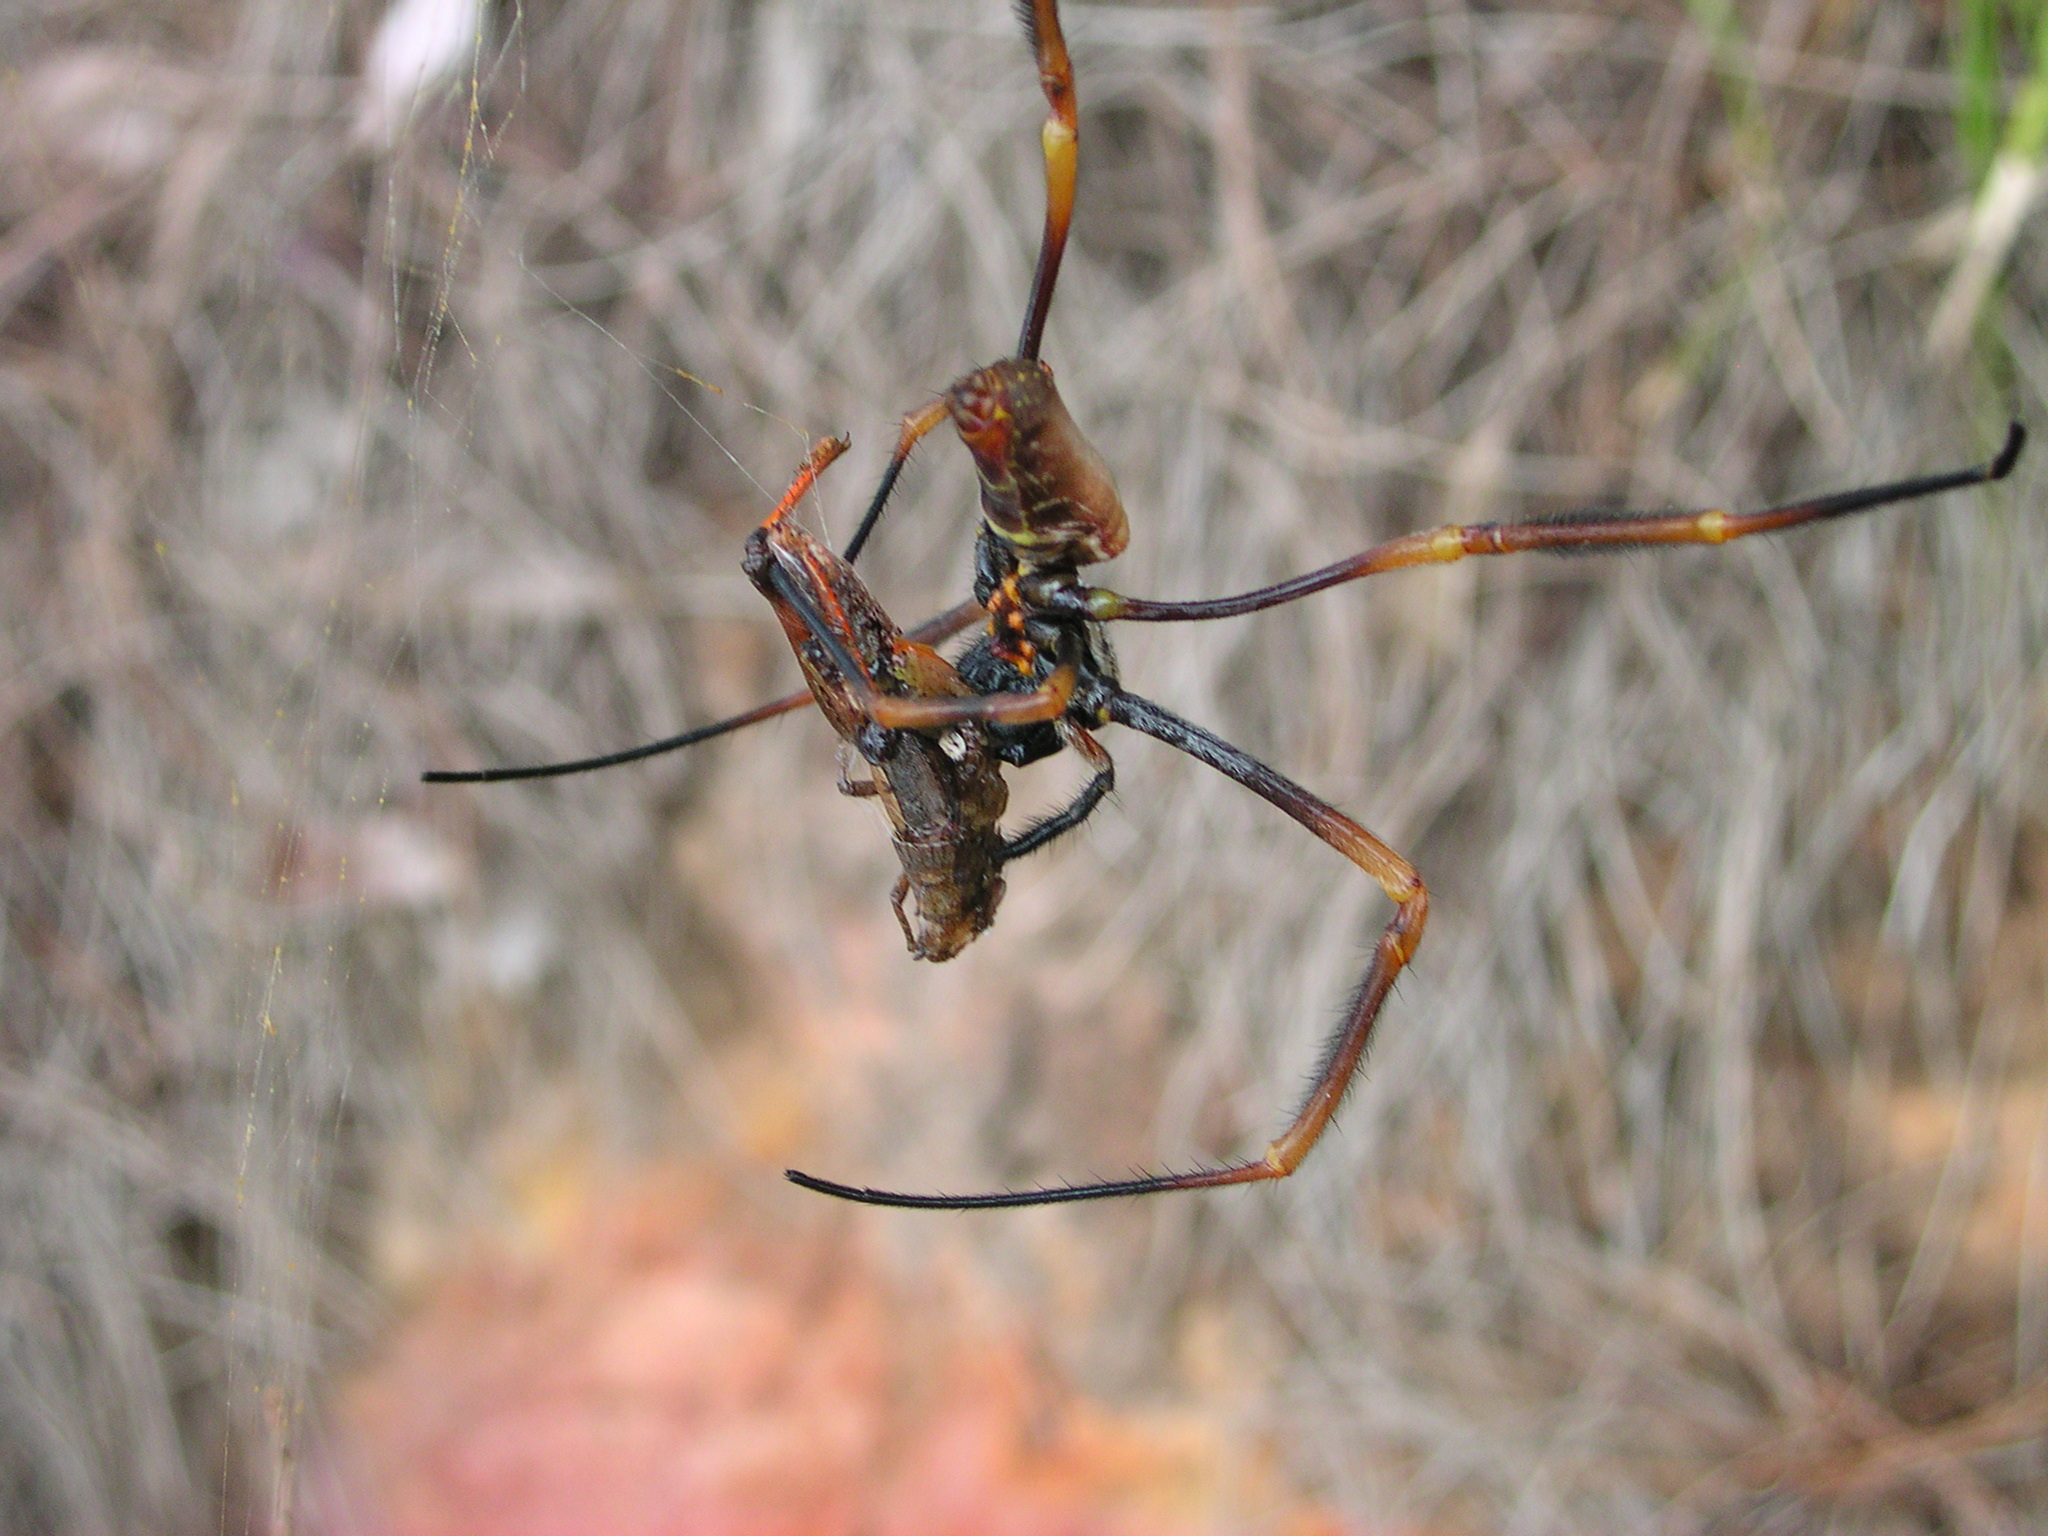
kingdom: Animalia
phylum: Arthropoda
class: Arachnida
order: Araneae
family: Araneidae
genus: Trichonephila
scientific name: Trichonephila plumipes
